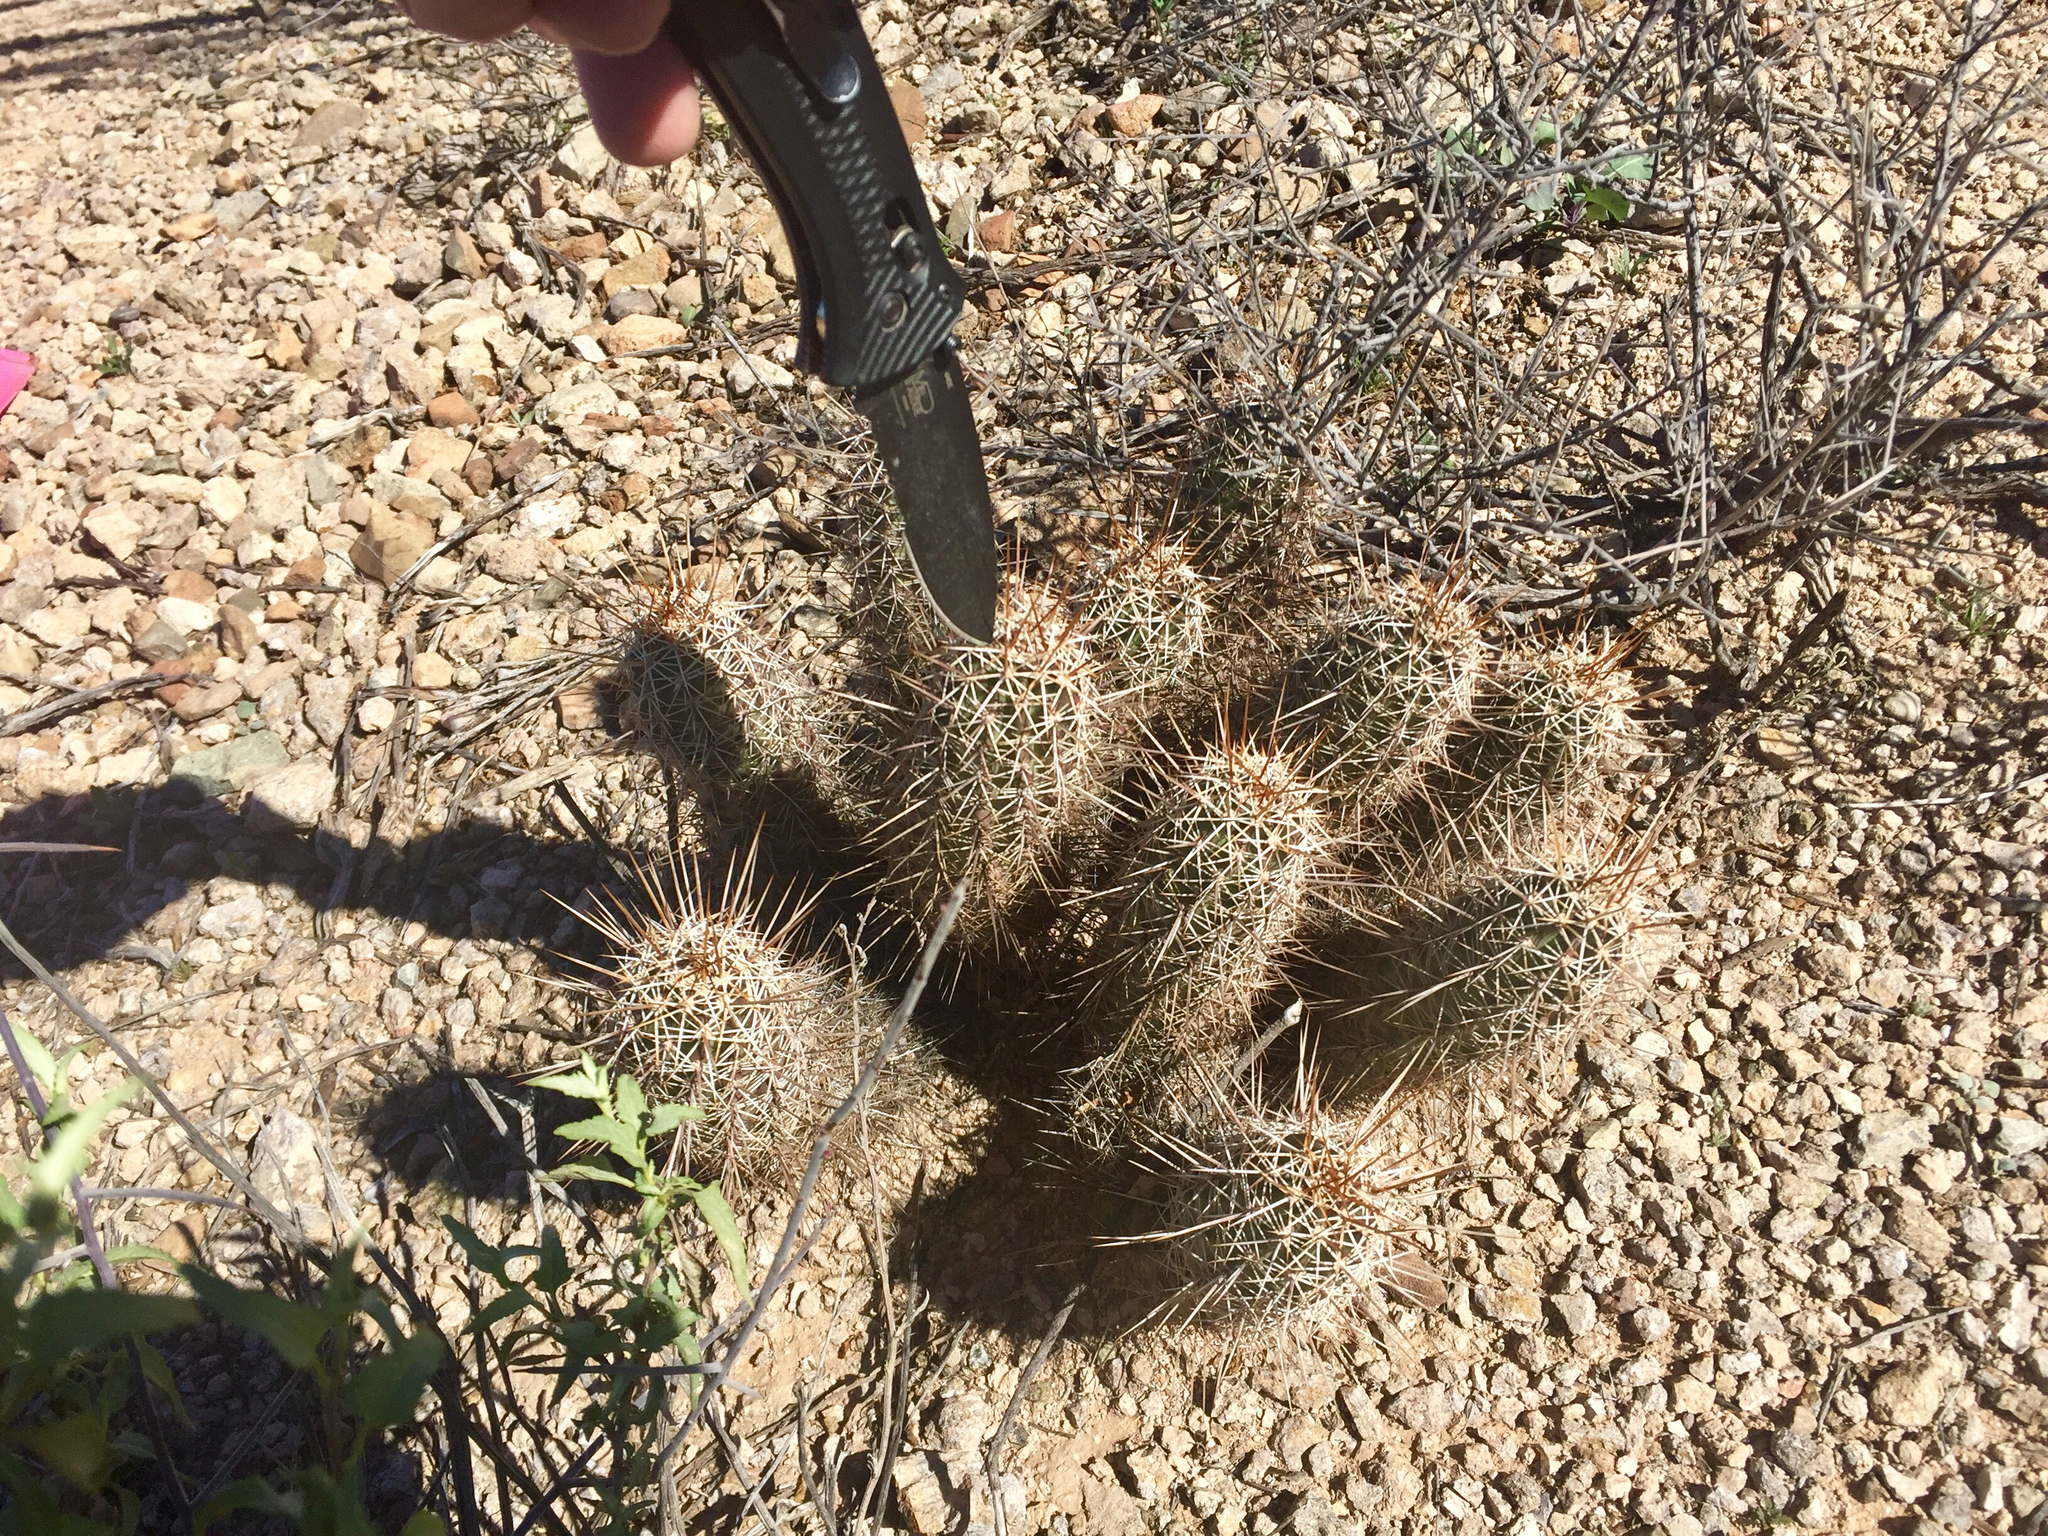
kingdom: Plantae
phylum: Tracheophyta
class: Magnoliopsida
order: Caryophyllales
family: Cactaceae
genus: Echinocereus
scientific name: Echinocereus fasciculatus
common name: Bundle hedgehog
